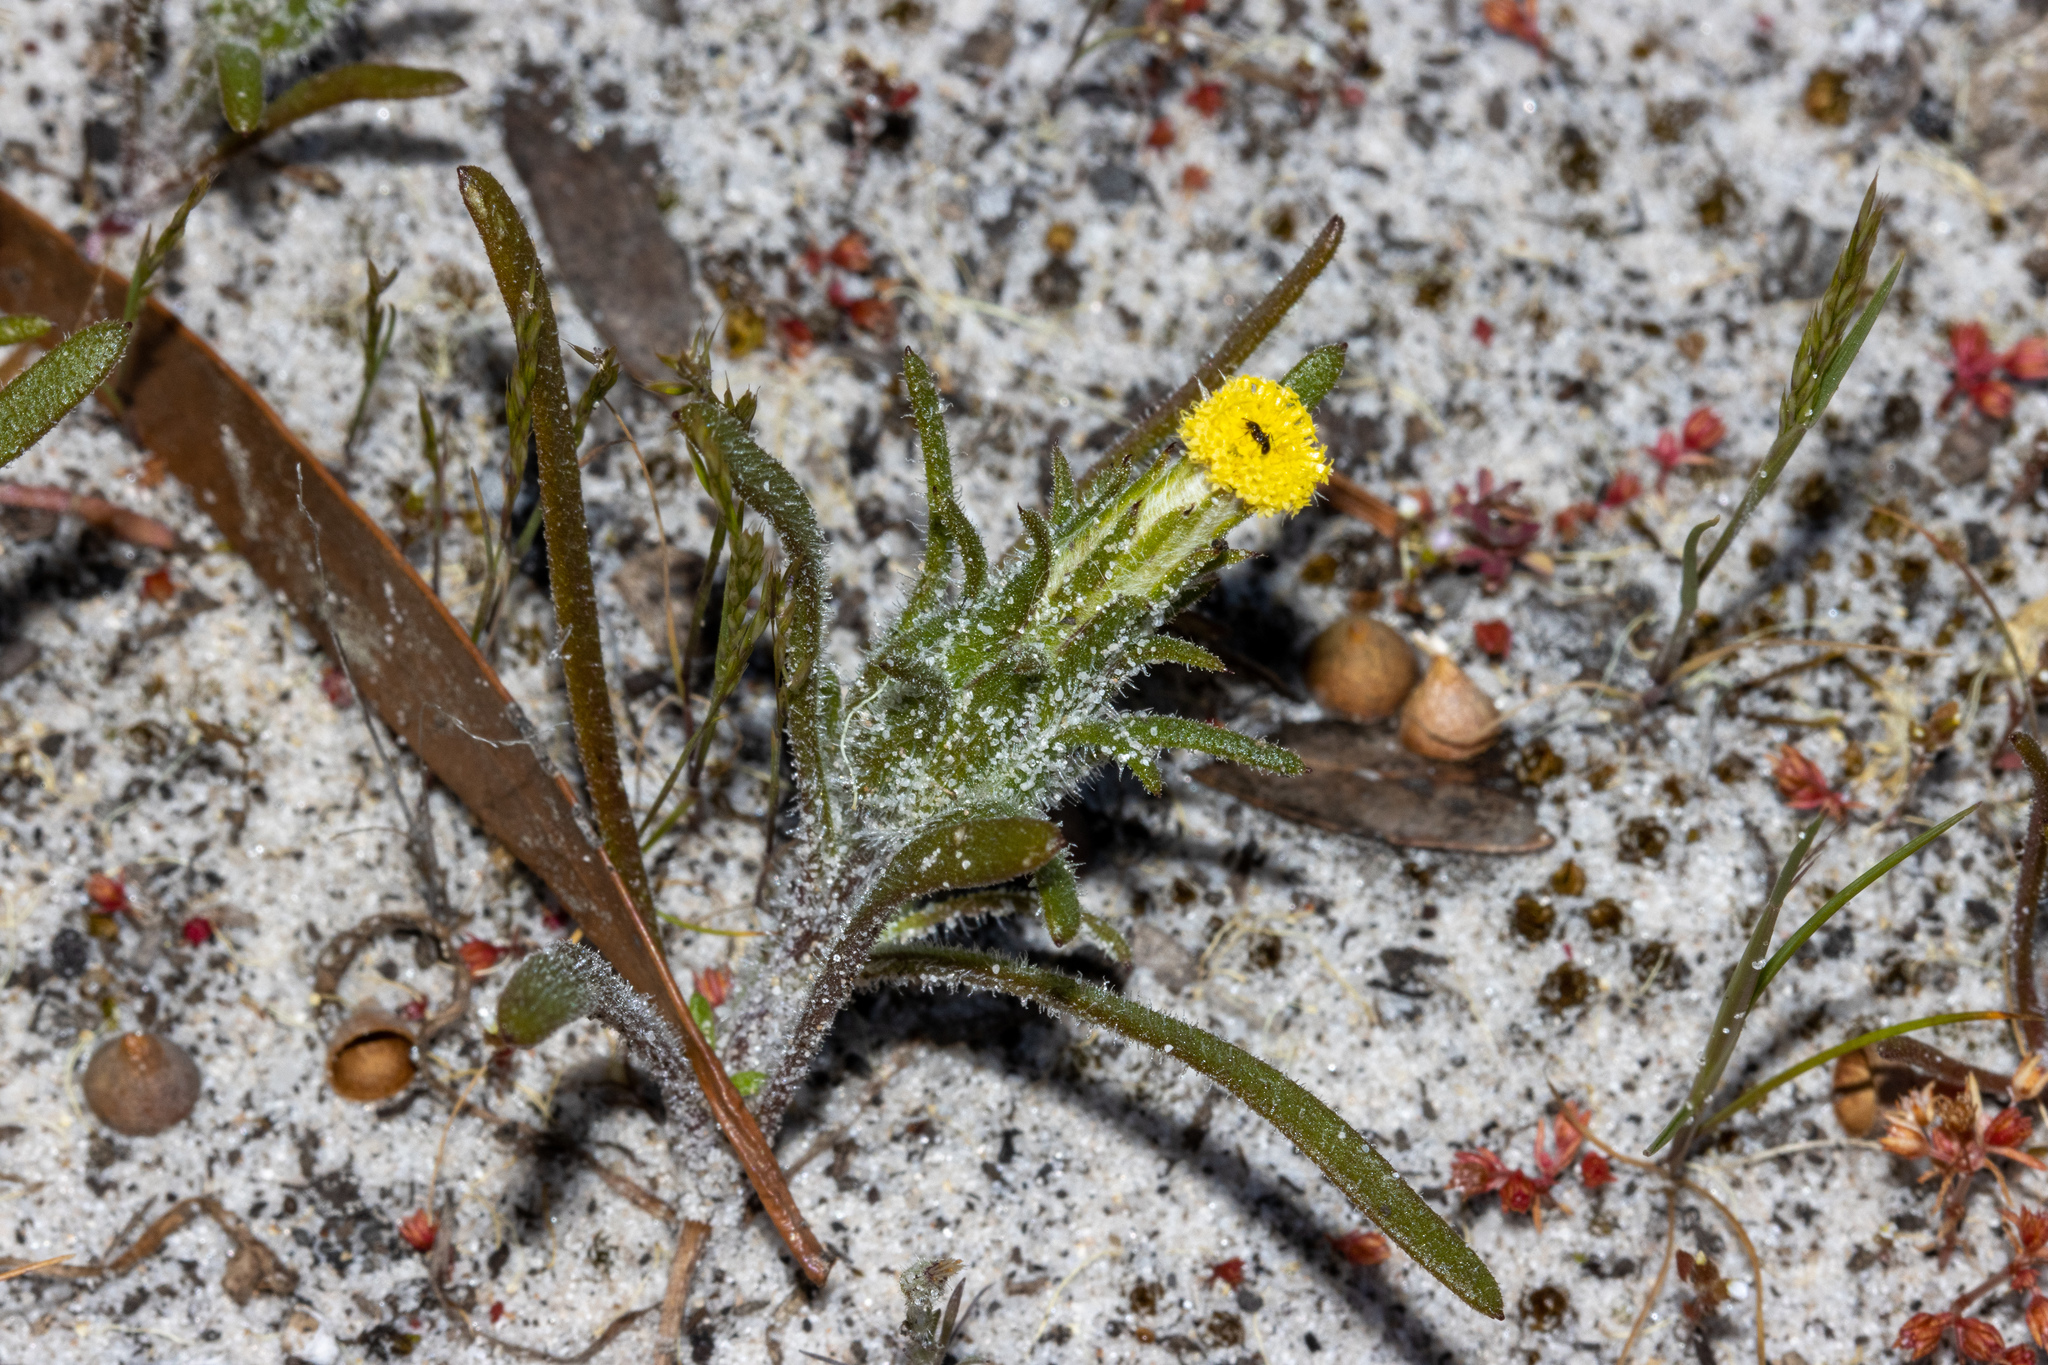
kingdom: Plantae
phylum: Tracheophyta
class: Magnoliopsida
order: Asterales
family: Asteraceae
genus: Podotheca
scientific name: Podotheca angustifolia
